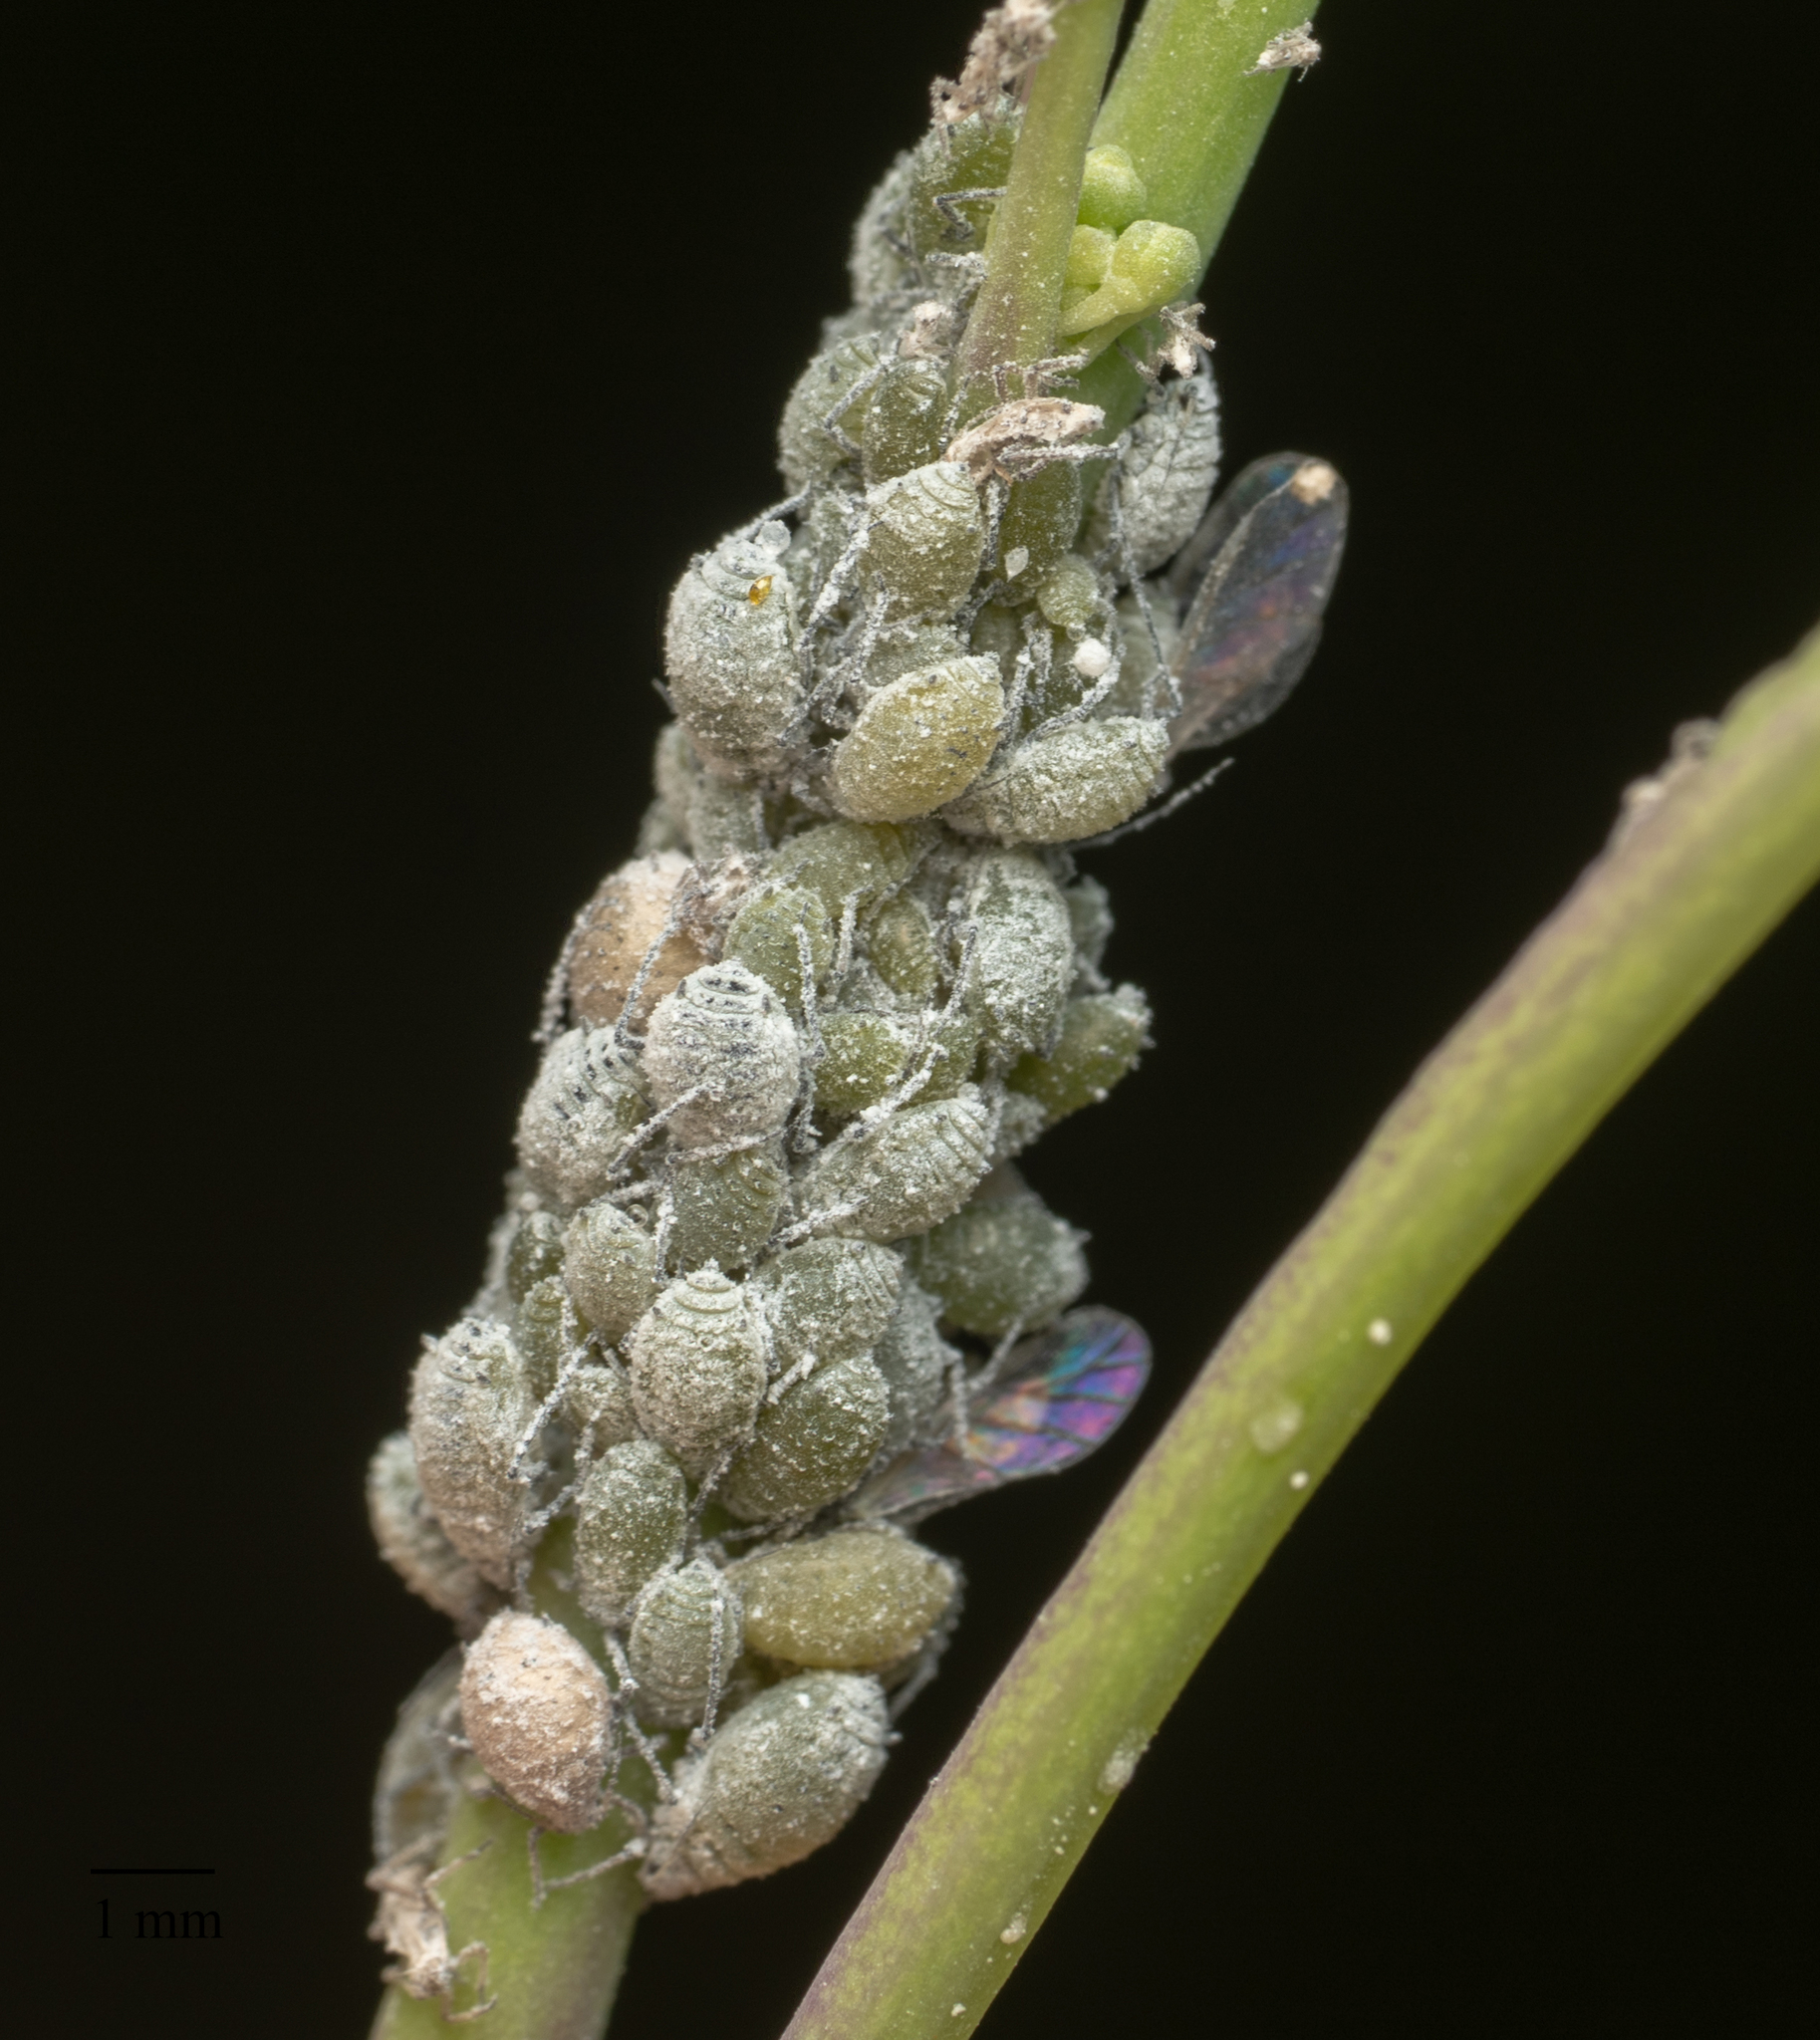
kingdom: Animalia
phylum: Arthropoda
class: Insecta
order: Hemiptera
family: Aphididae
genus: Brevicoryne
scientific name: Brevicoryne brassicae
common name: Cabbage aphid
